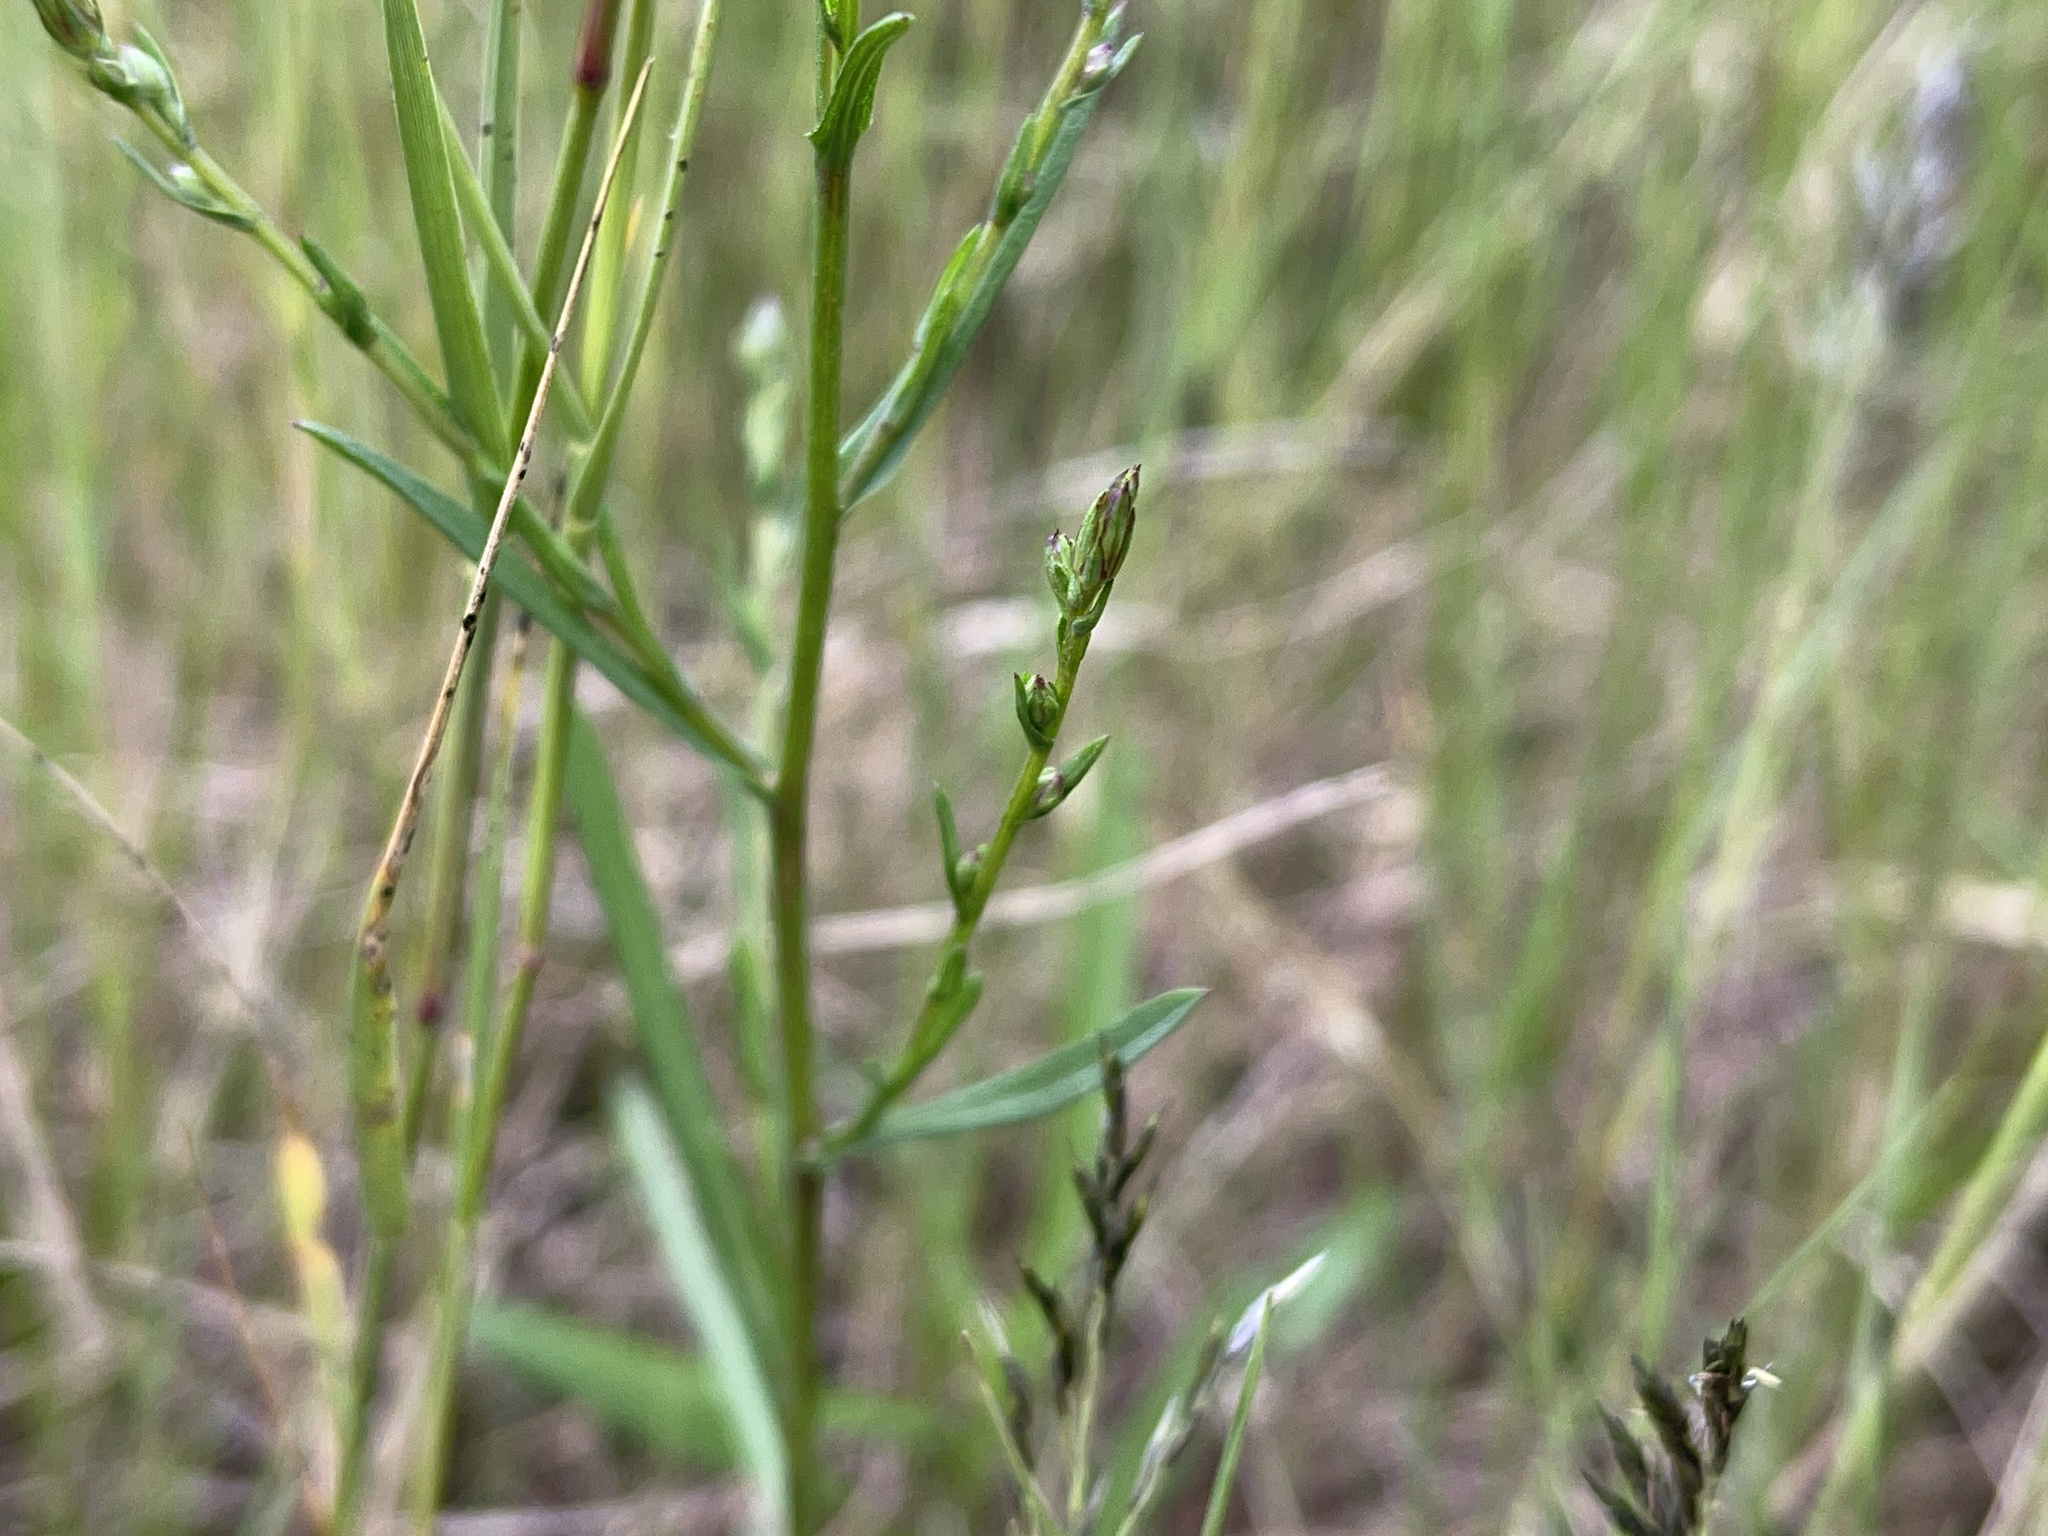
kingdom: Plantae
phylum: Tracheophyta
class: Magnoliopsida
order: Asterales
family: Asteraceae
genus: Symphyotrichum
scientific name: Symphyotrichum subulatum
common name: Annual saltmarsh aster
